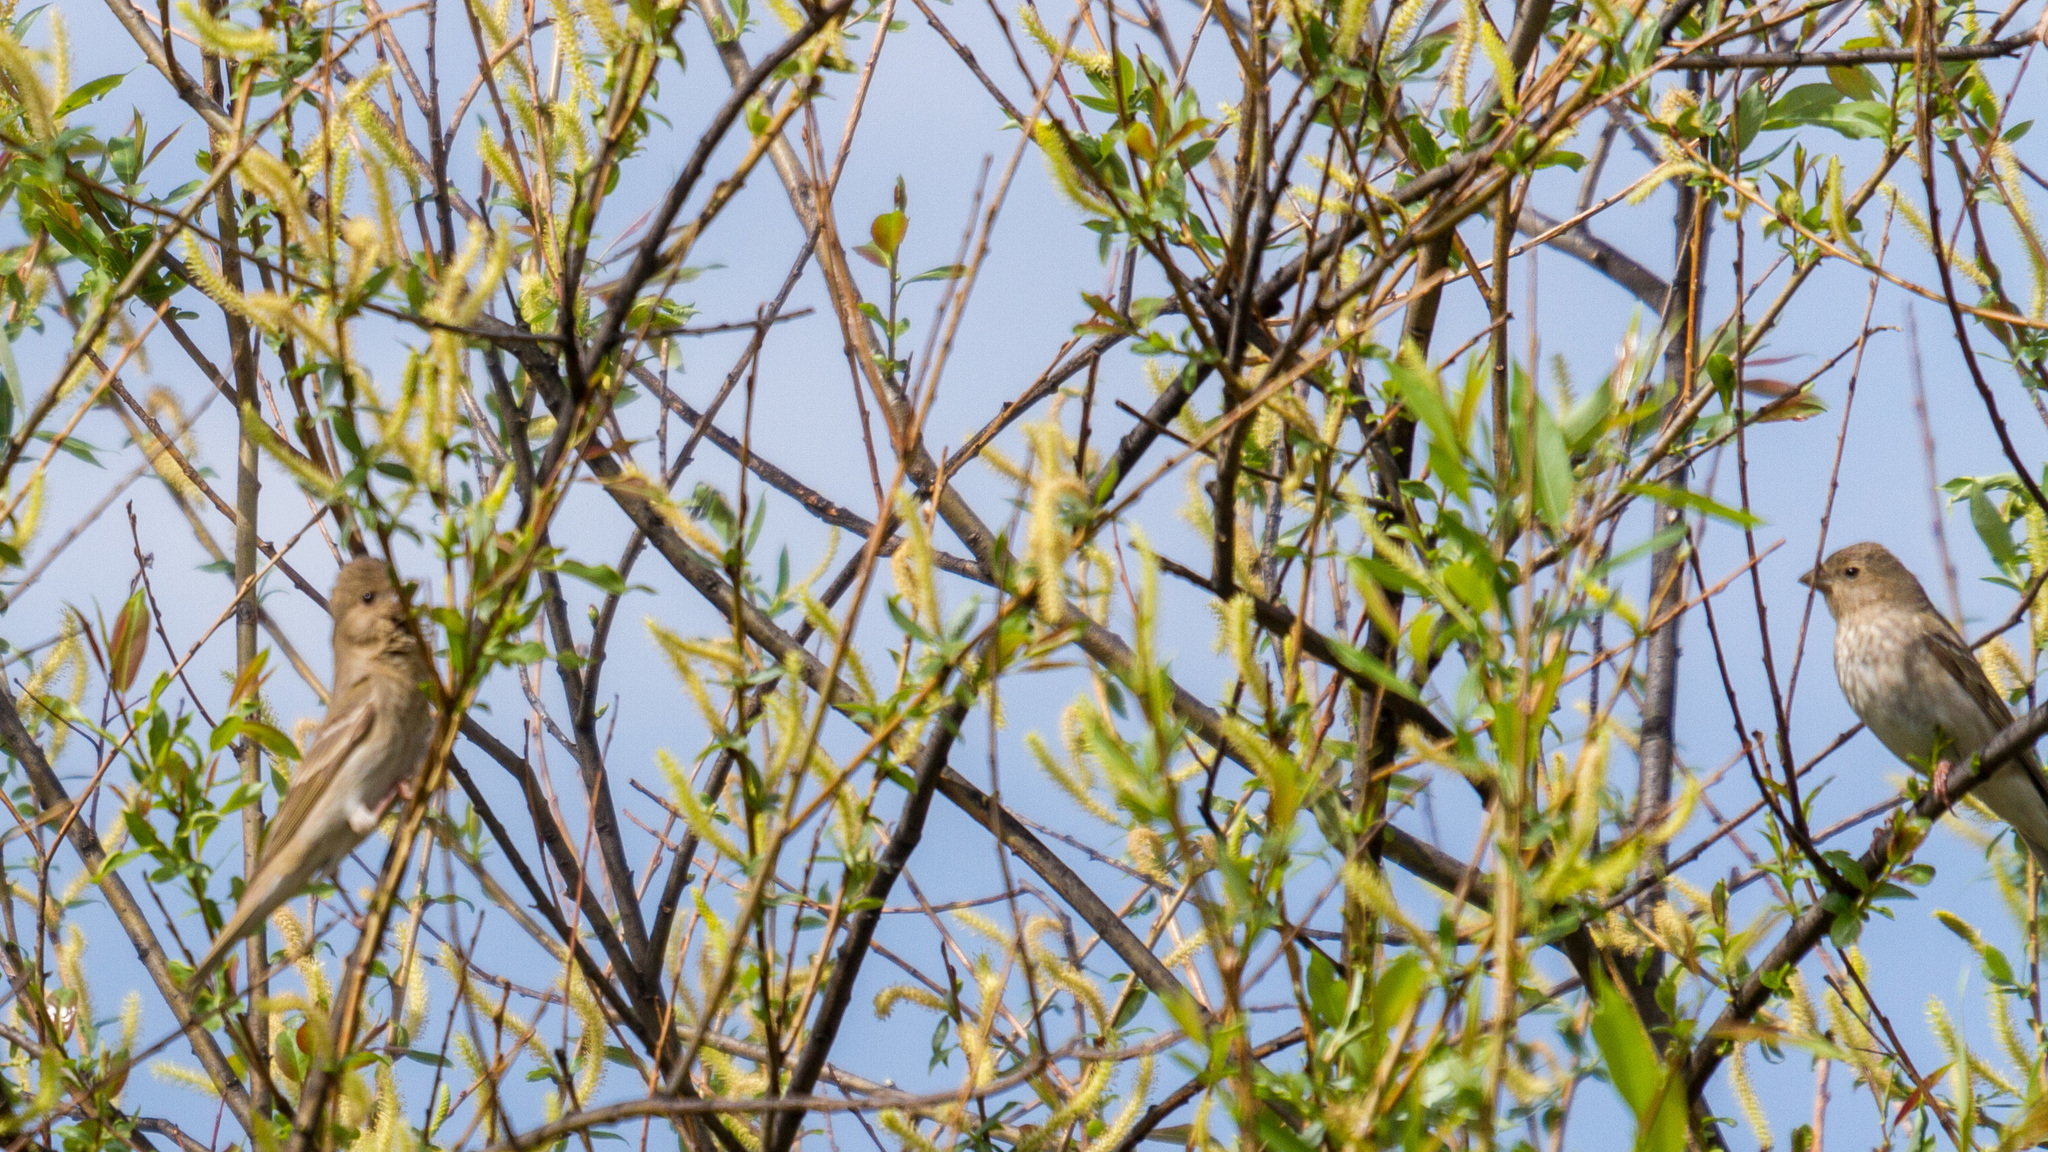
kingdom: Animalia
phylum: Chordata
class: Aves
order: Passeriformes
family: Fringillidae
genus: Carpodacus
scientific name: Carpodacus erythrinus
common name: Common rosefinch
